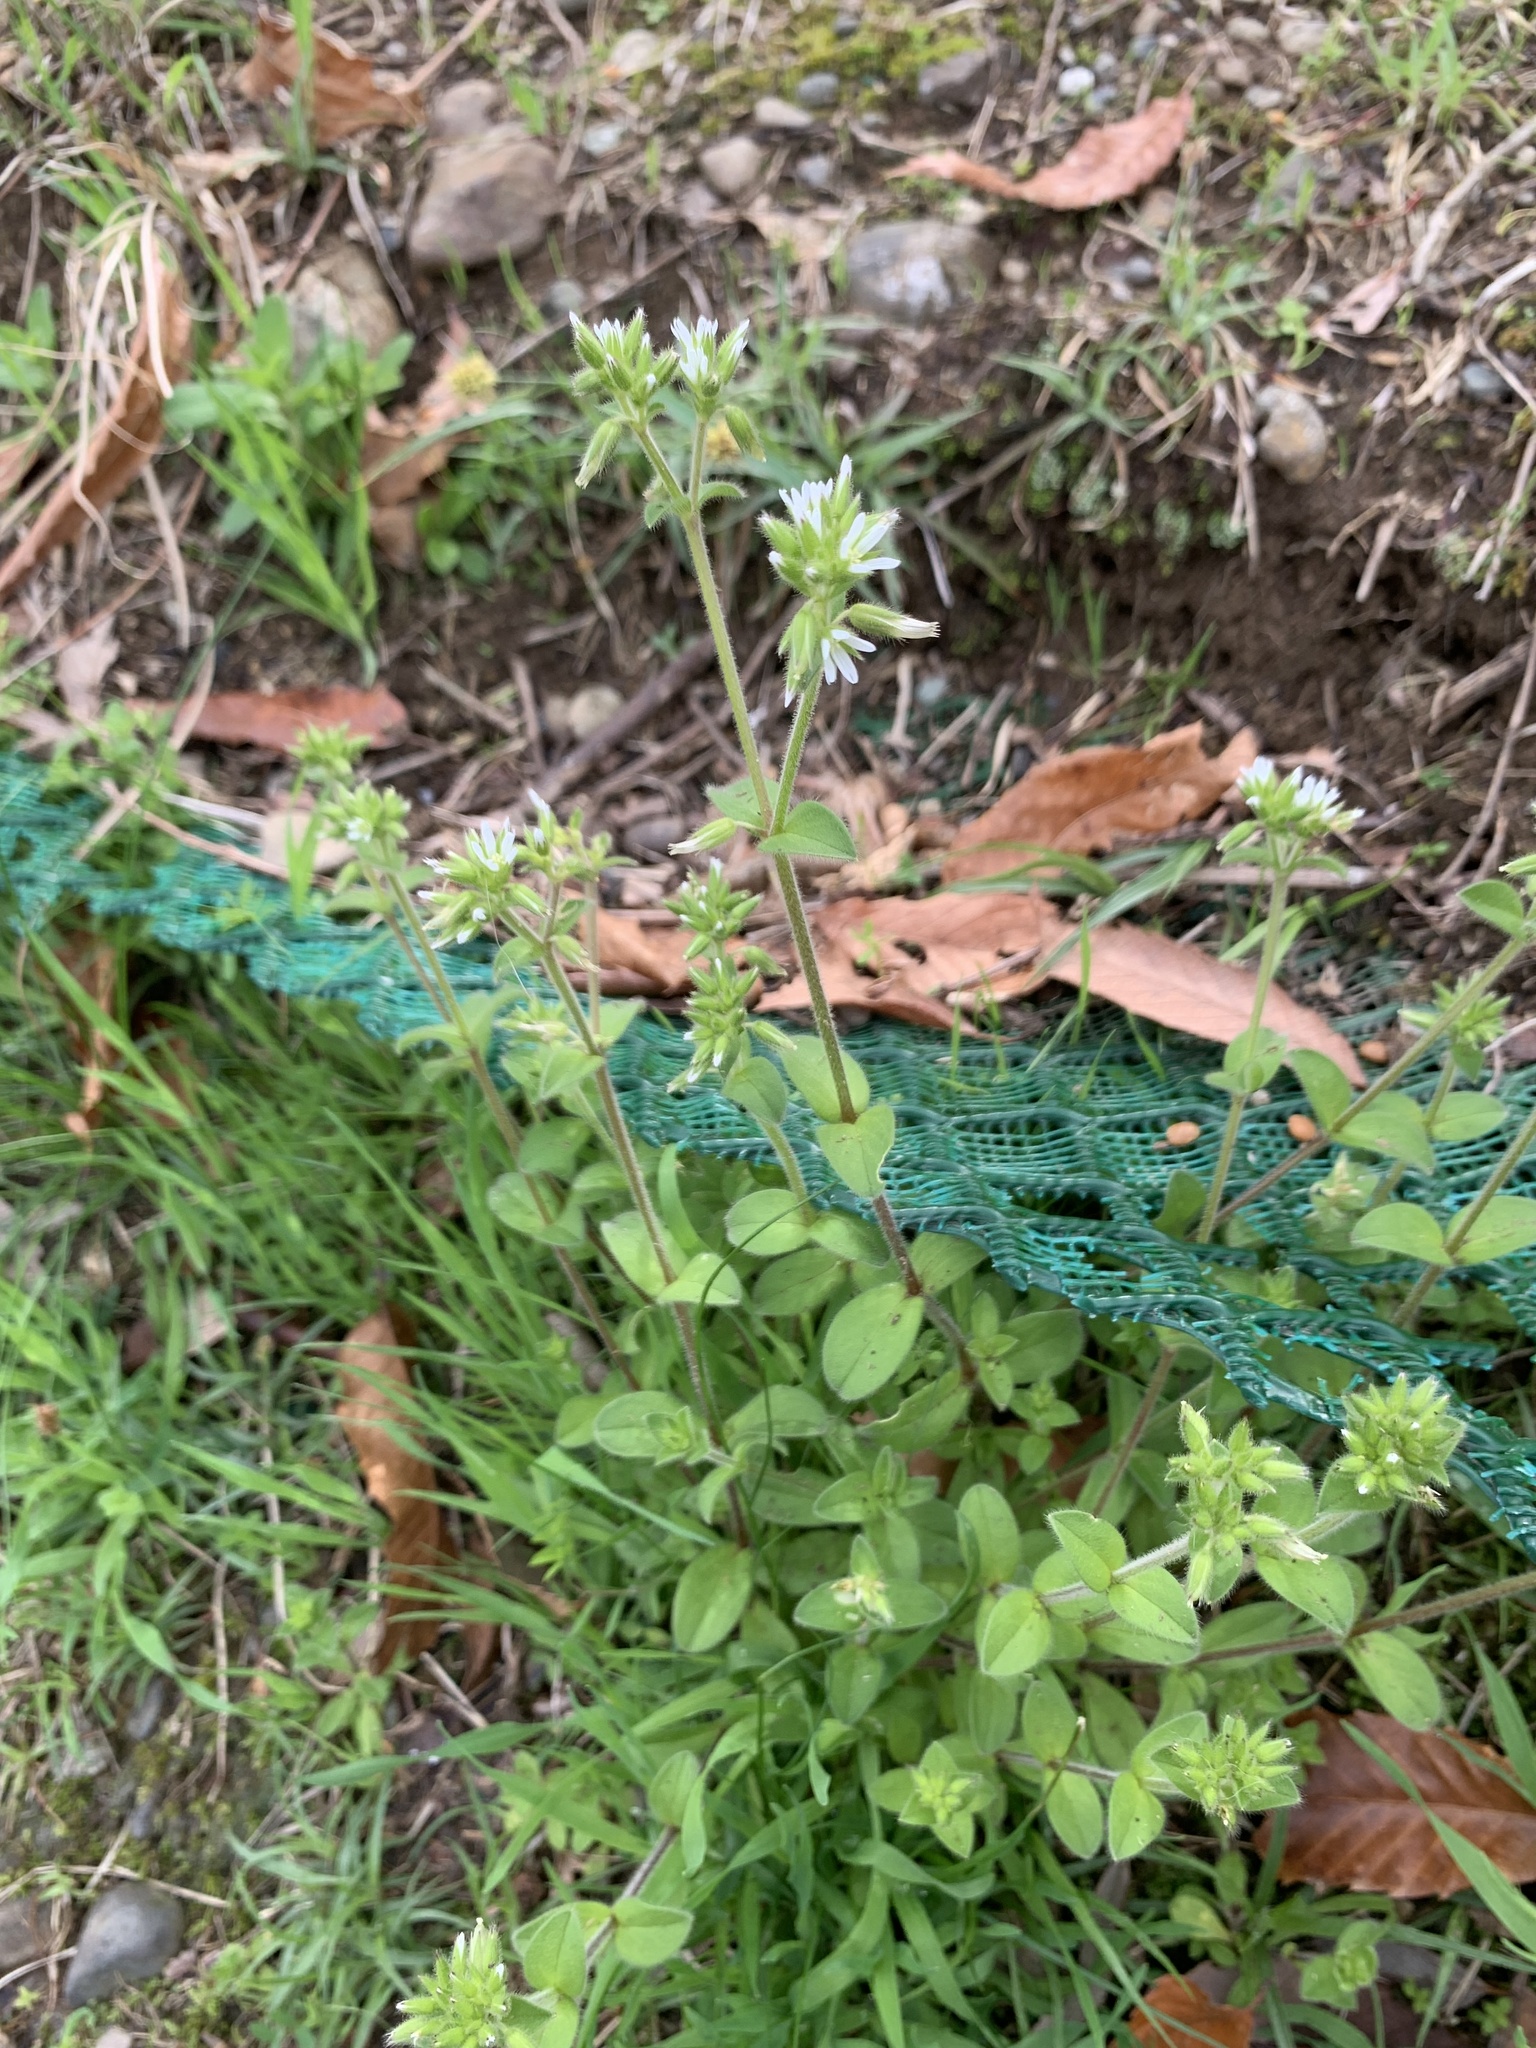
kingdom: Plantae
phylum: Tracheophyta
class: Magnoliopsida
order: Caryophyllales
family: Caryophyllaceae
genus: Cerastium
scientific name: Cerastium glomeratum
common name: Sticky chickweed
